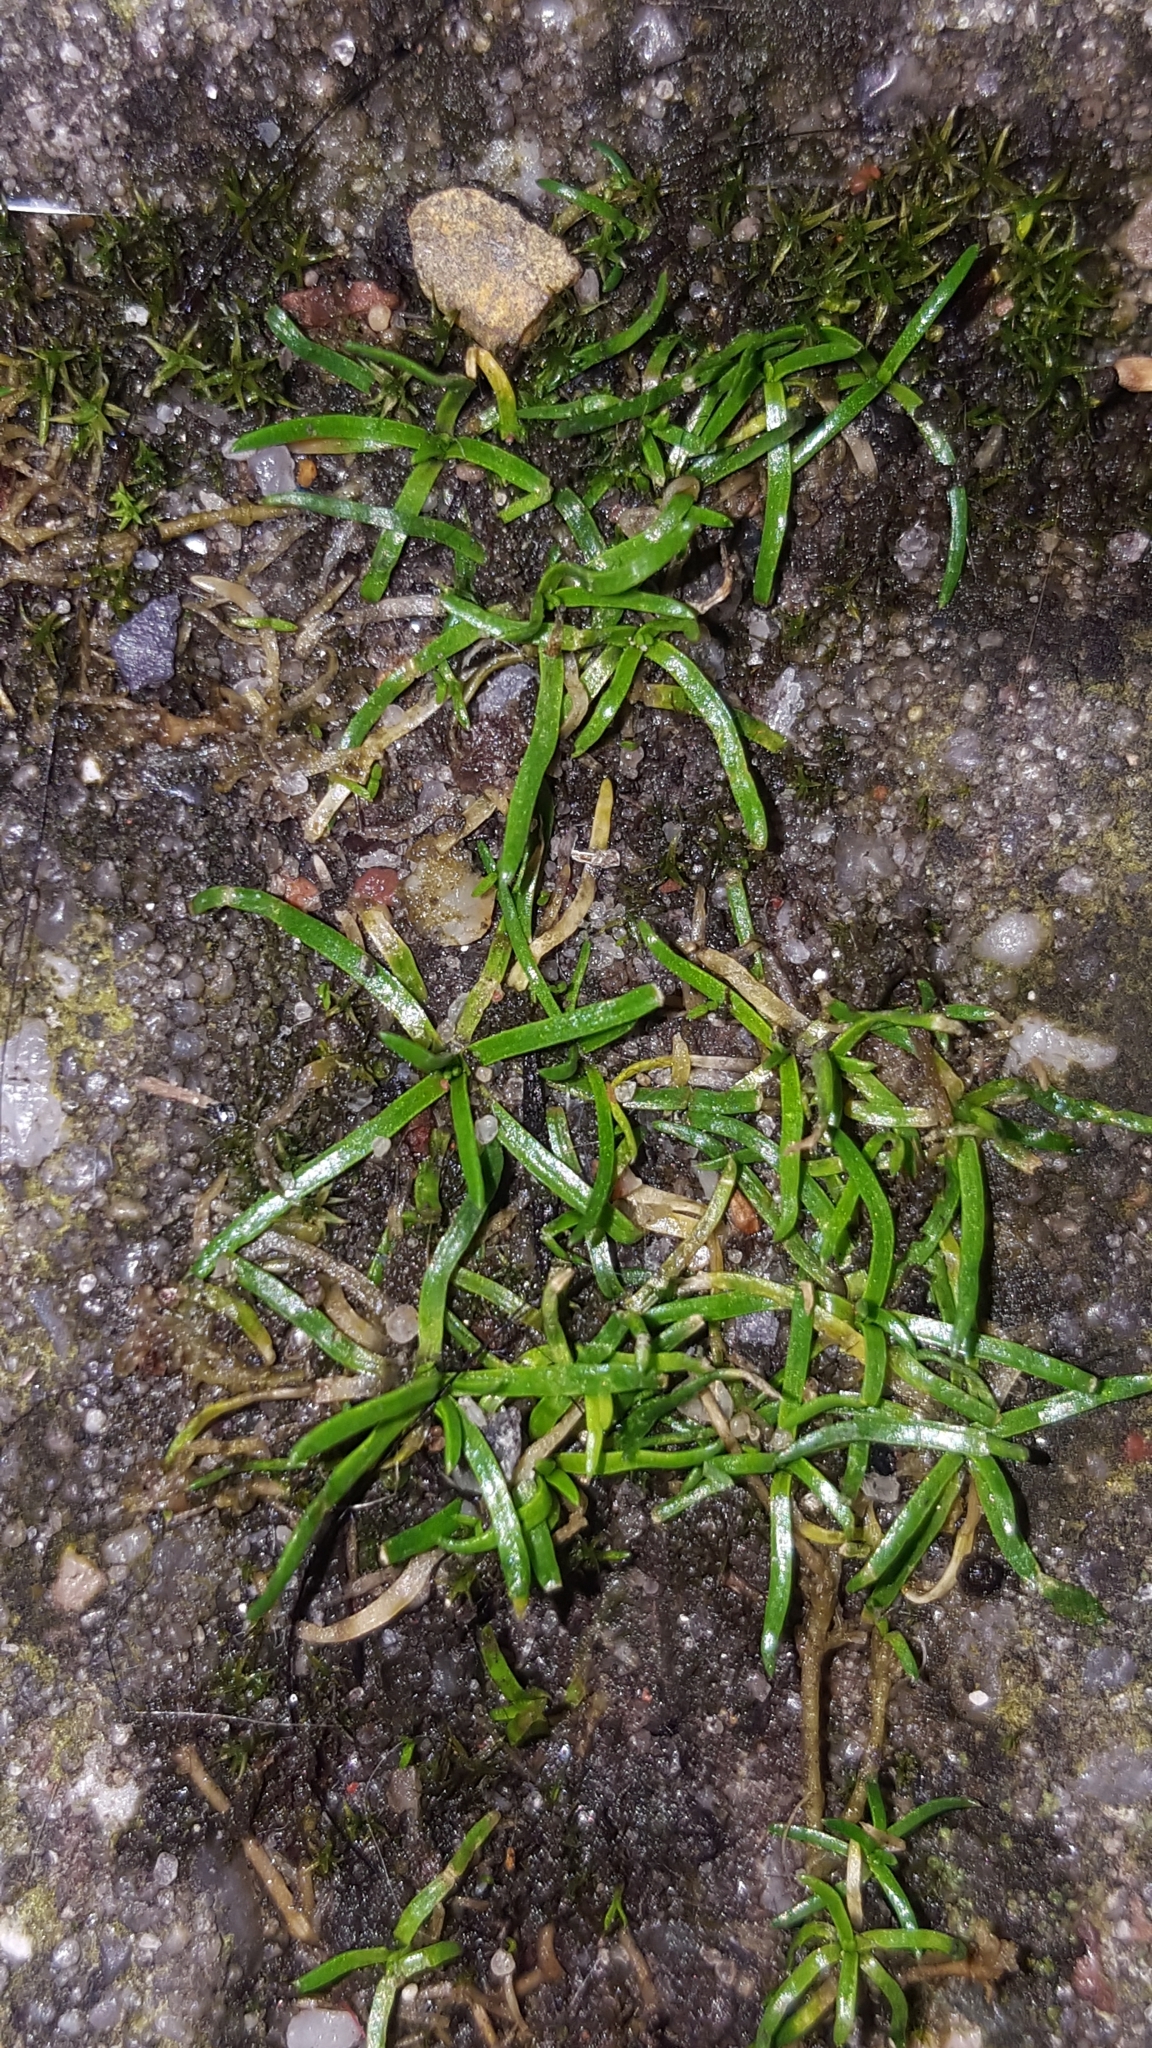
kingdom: Plantae
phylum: Tracheophyta
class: Magnoliopsida
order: Caryophyllales
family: Caryophyllaceae
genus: Sagina
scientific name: Sagina procumbens
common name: Procumbent pearlwort
